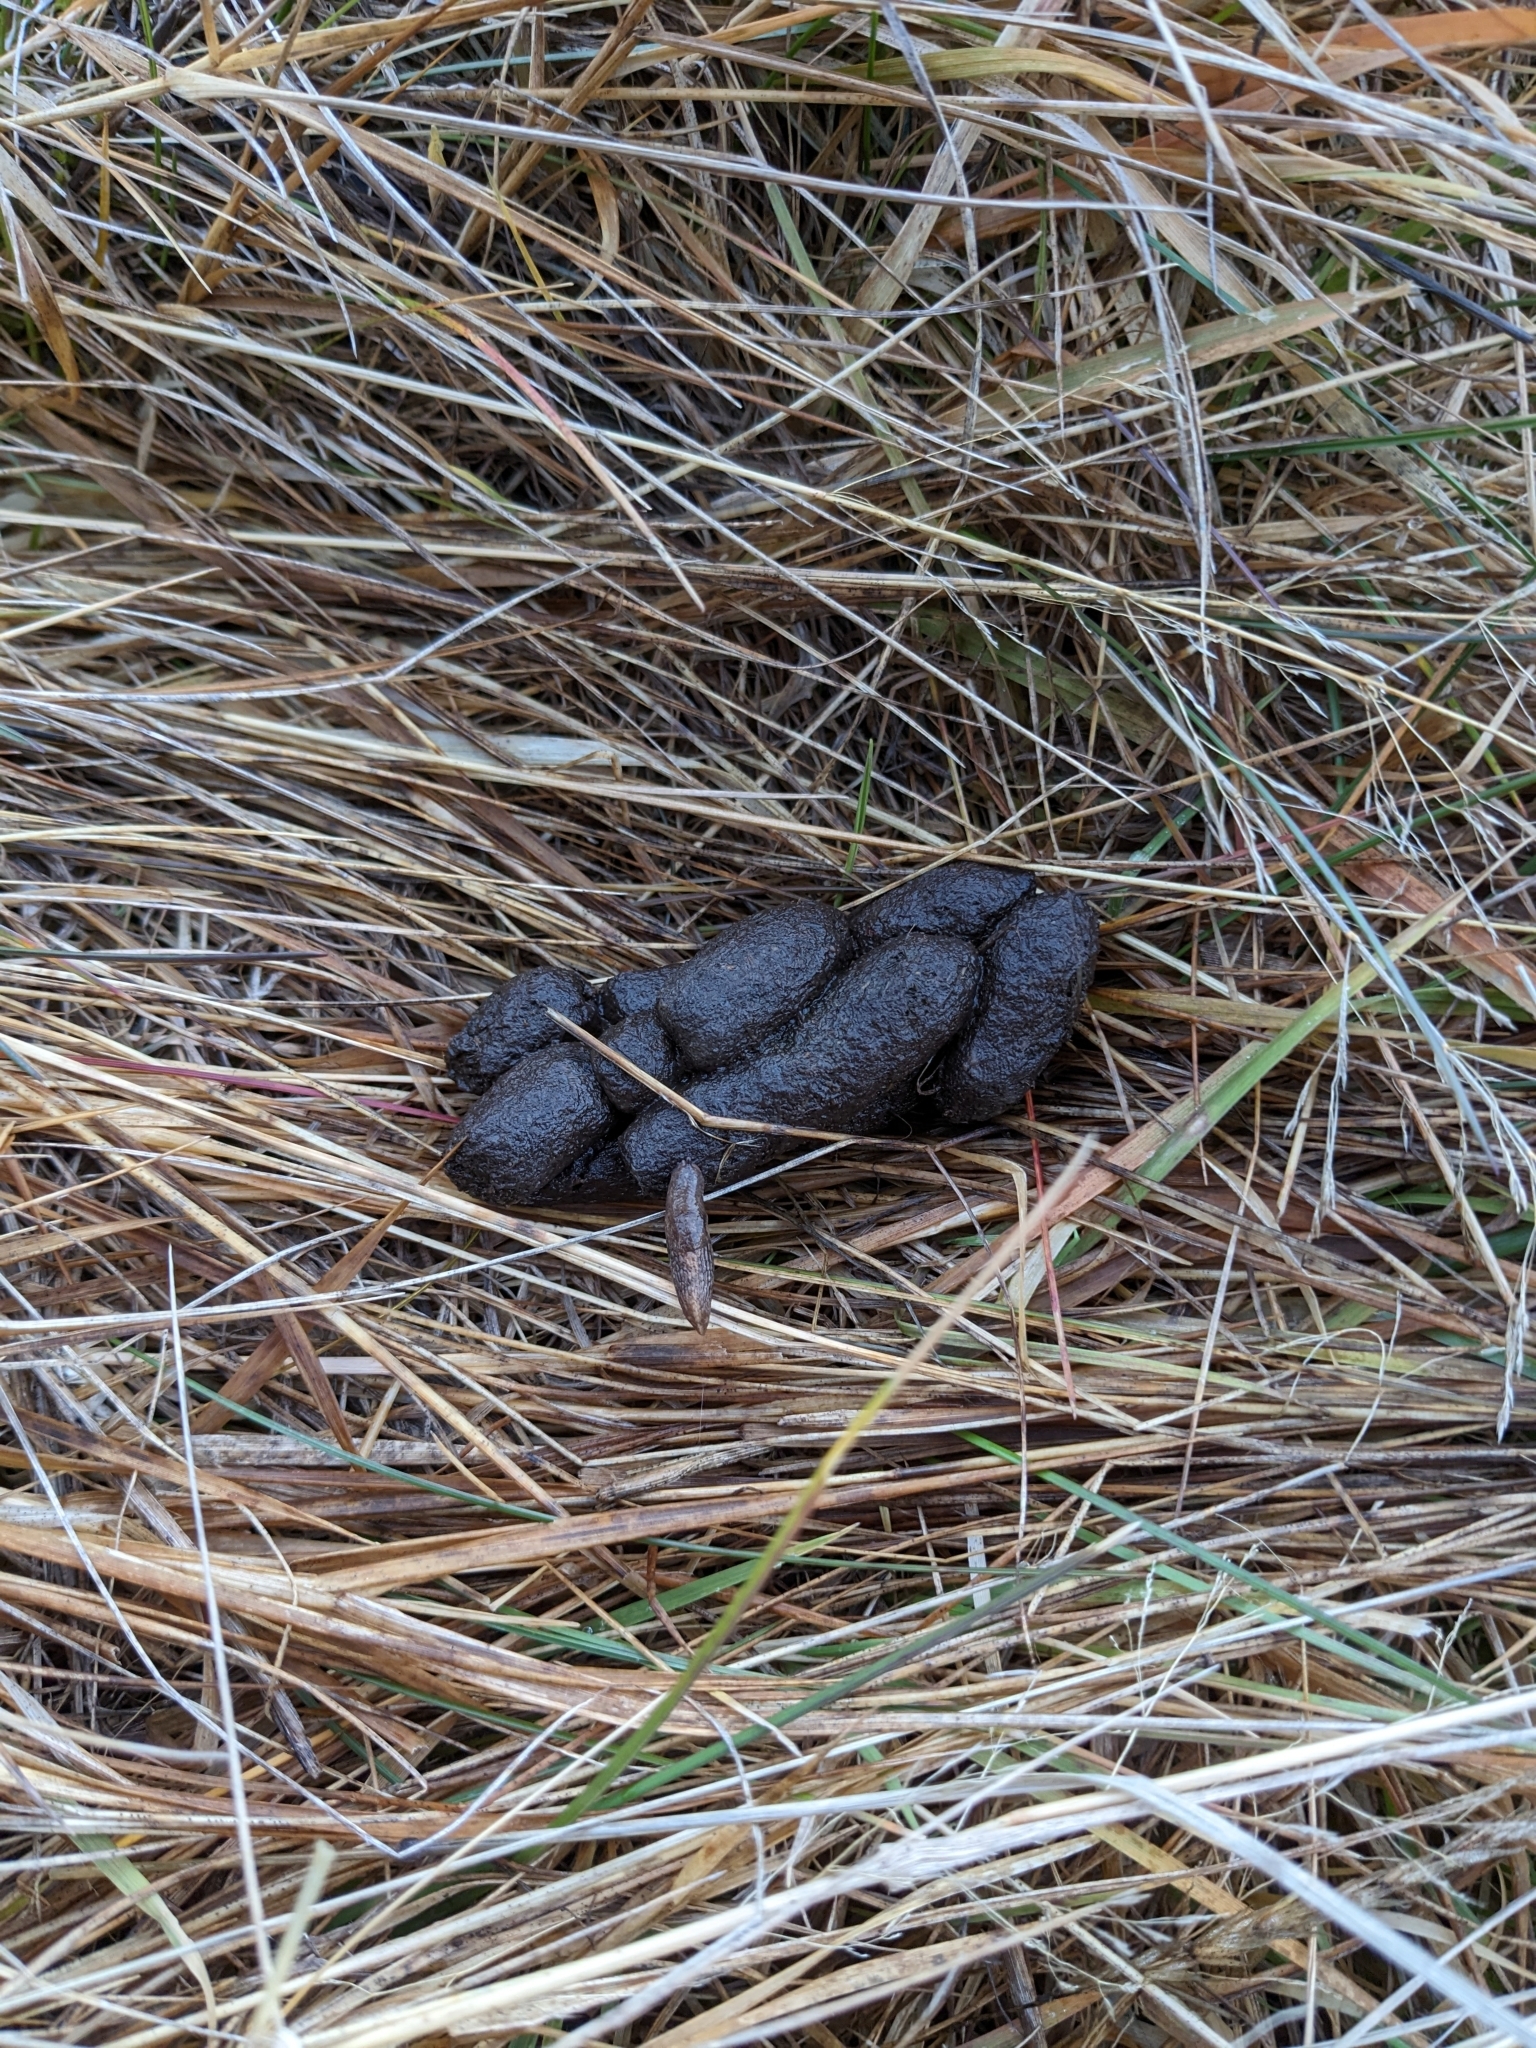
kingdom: Animalia
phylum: Chordata
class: Mammalia
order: Diprotodontia
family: Phalangeridae
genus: Trichosurus
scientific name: Trichosurus vulpecula
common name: Common brushtail
